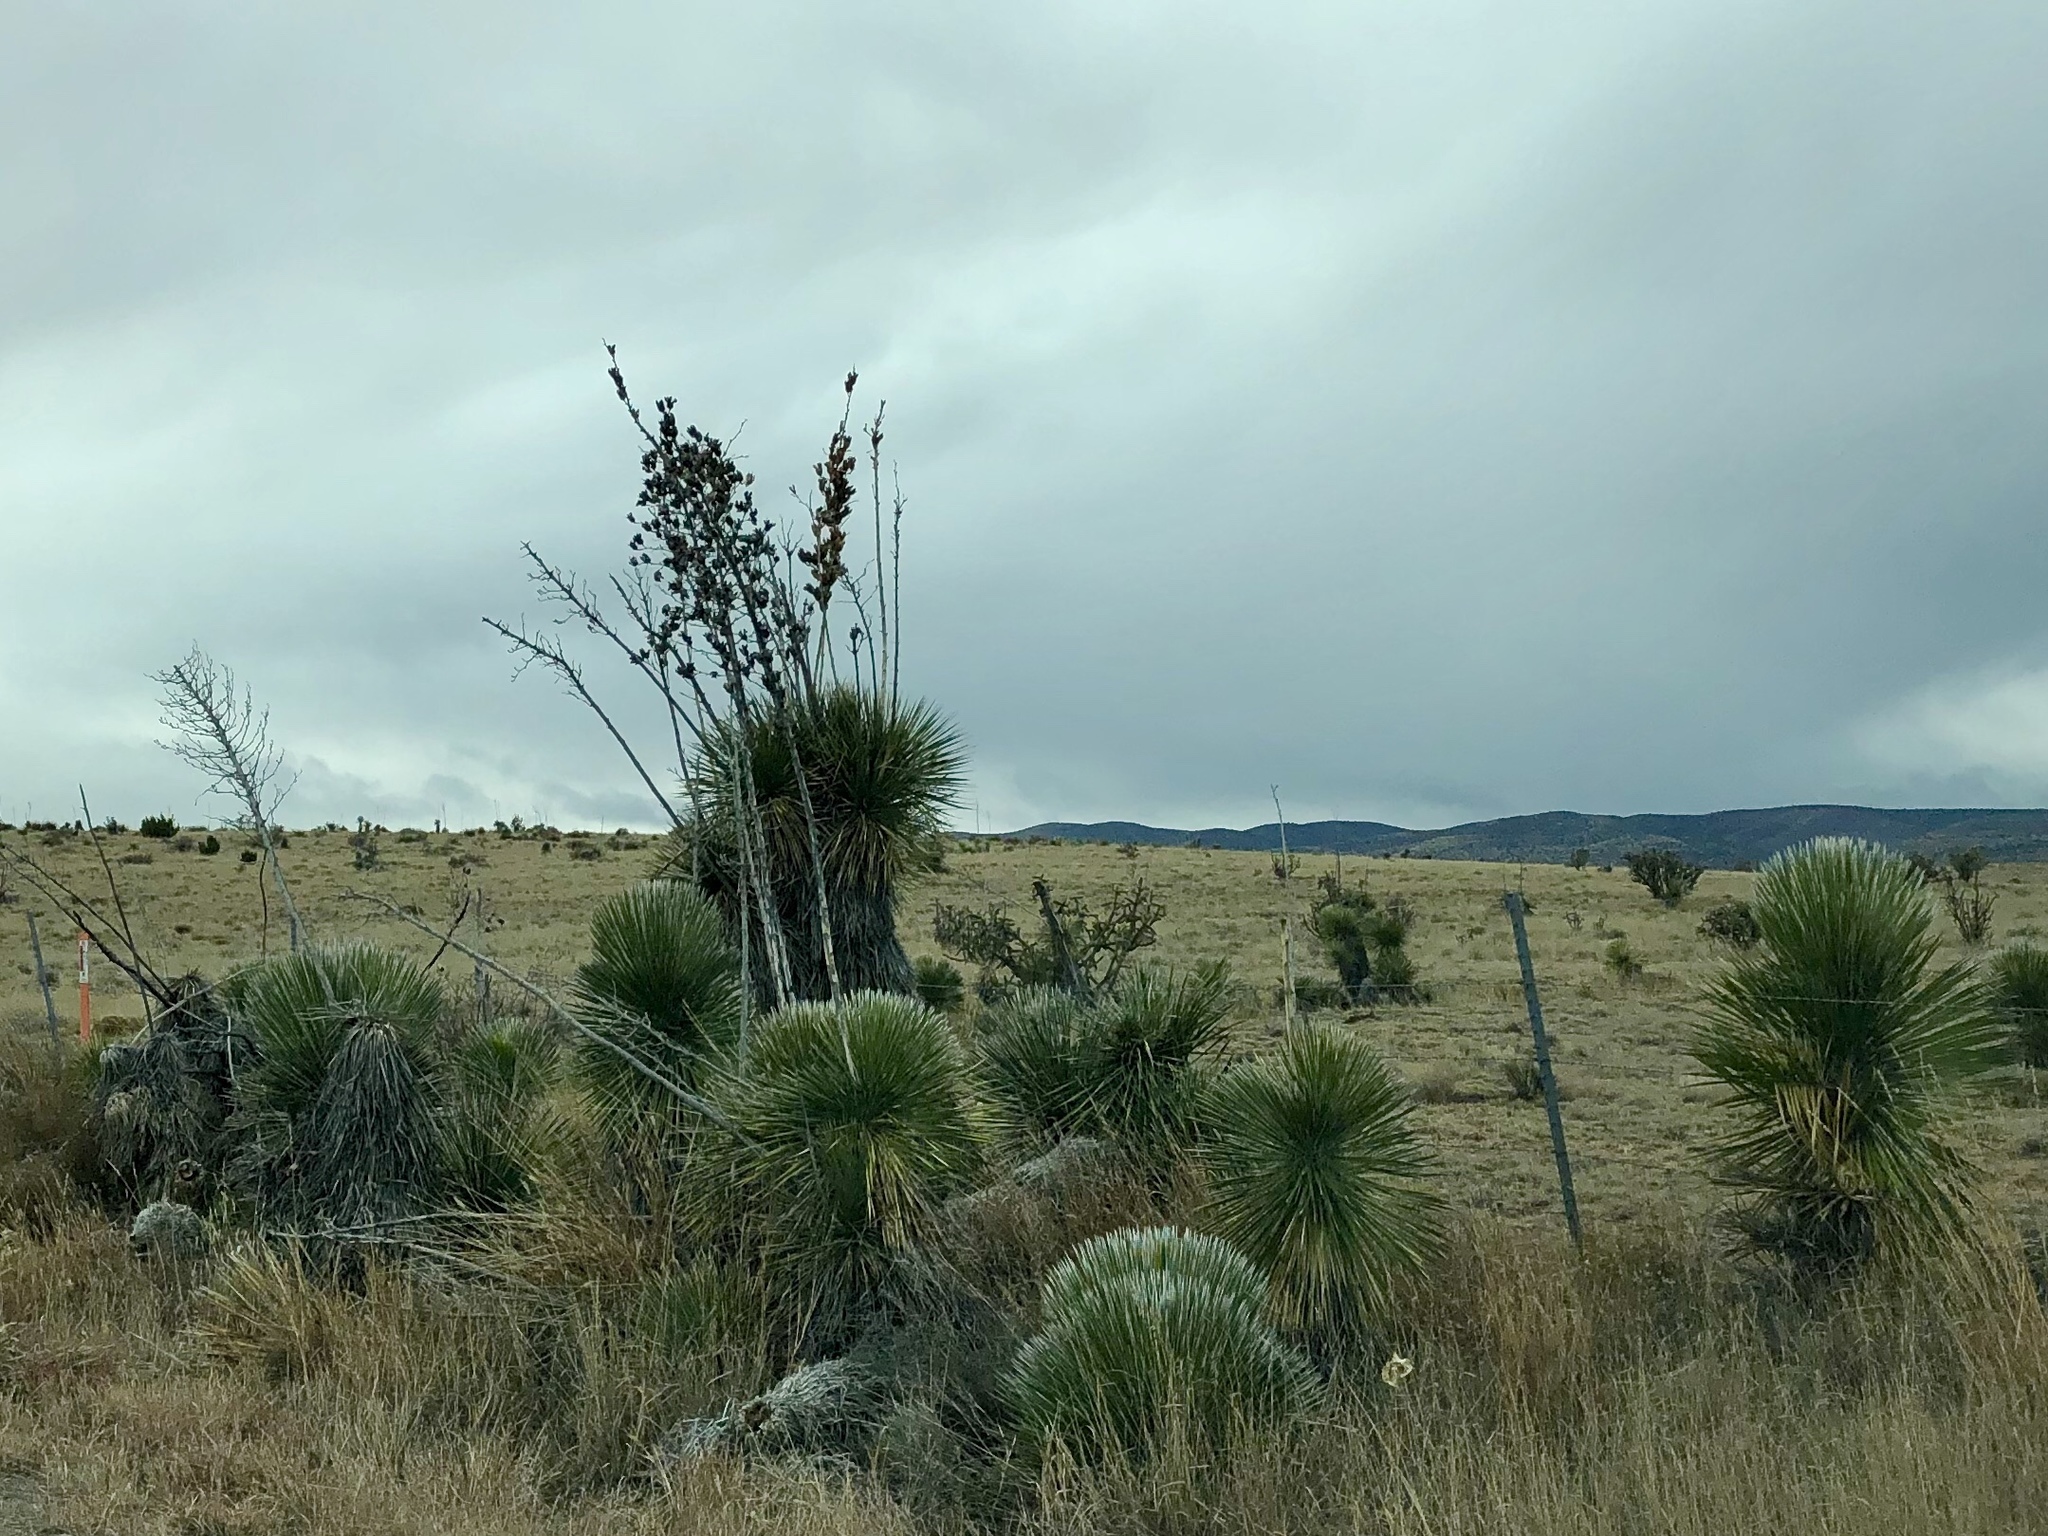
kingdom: Plantae
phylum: Tracheophyta
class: Liliopsida
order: Asparagales
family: Asparagaceae
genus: Yucca
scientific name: Yucca elata
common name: Palmella
